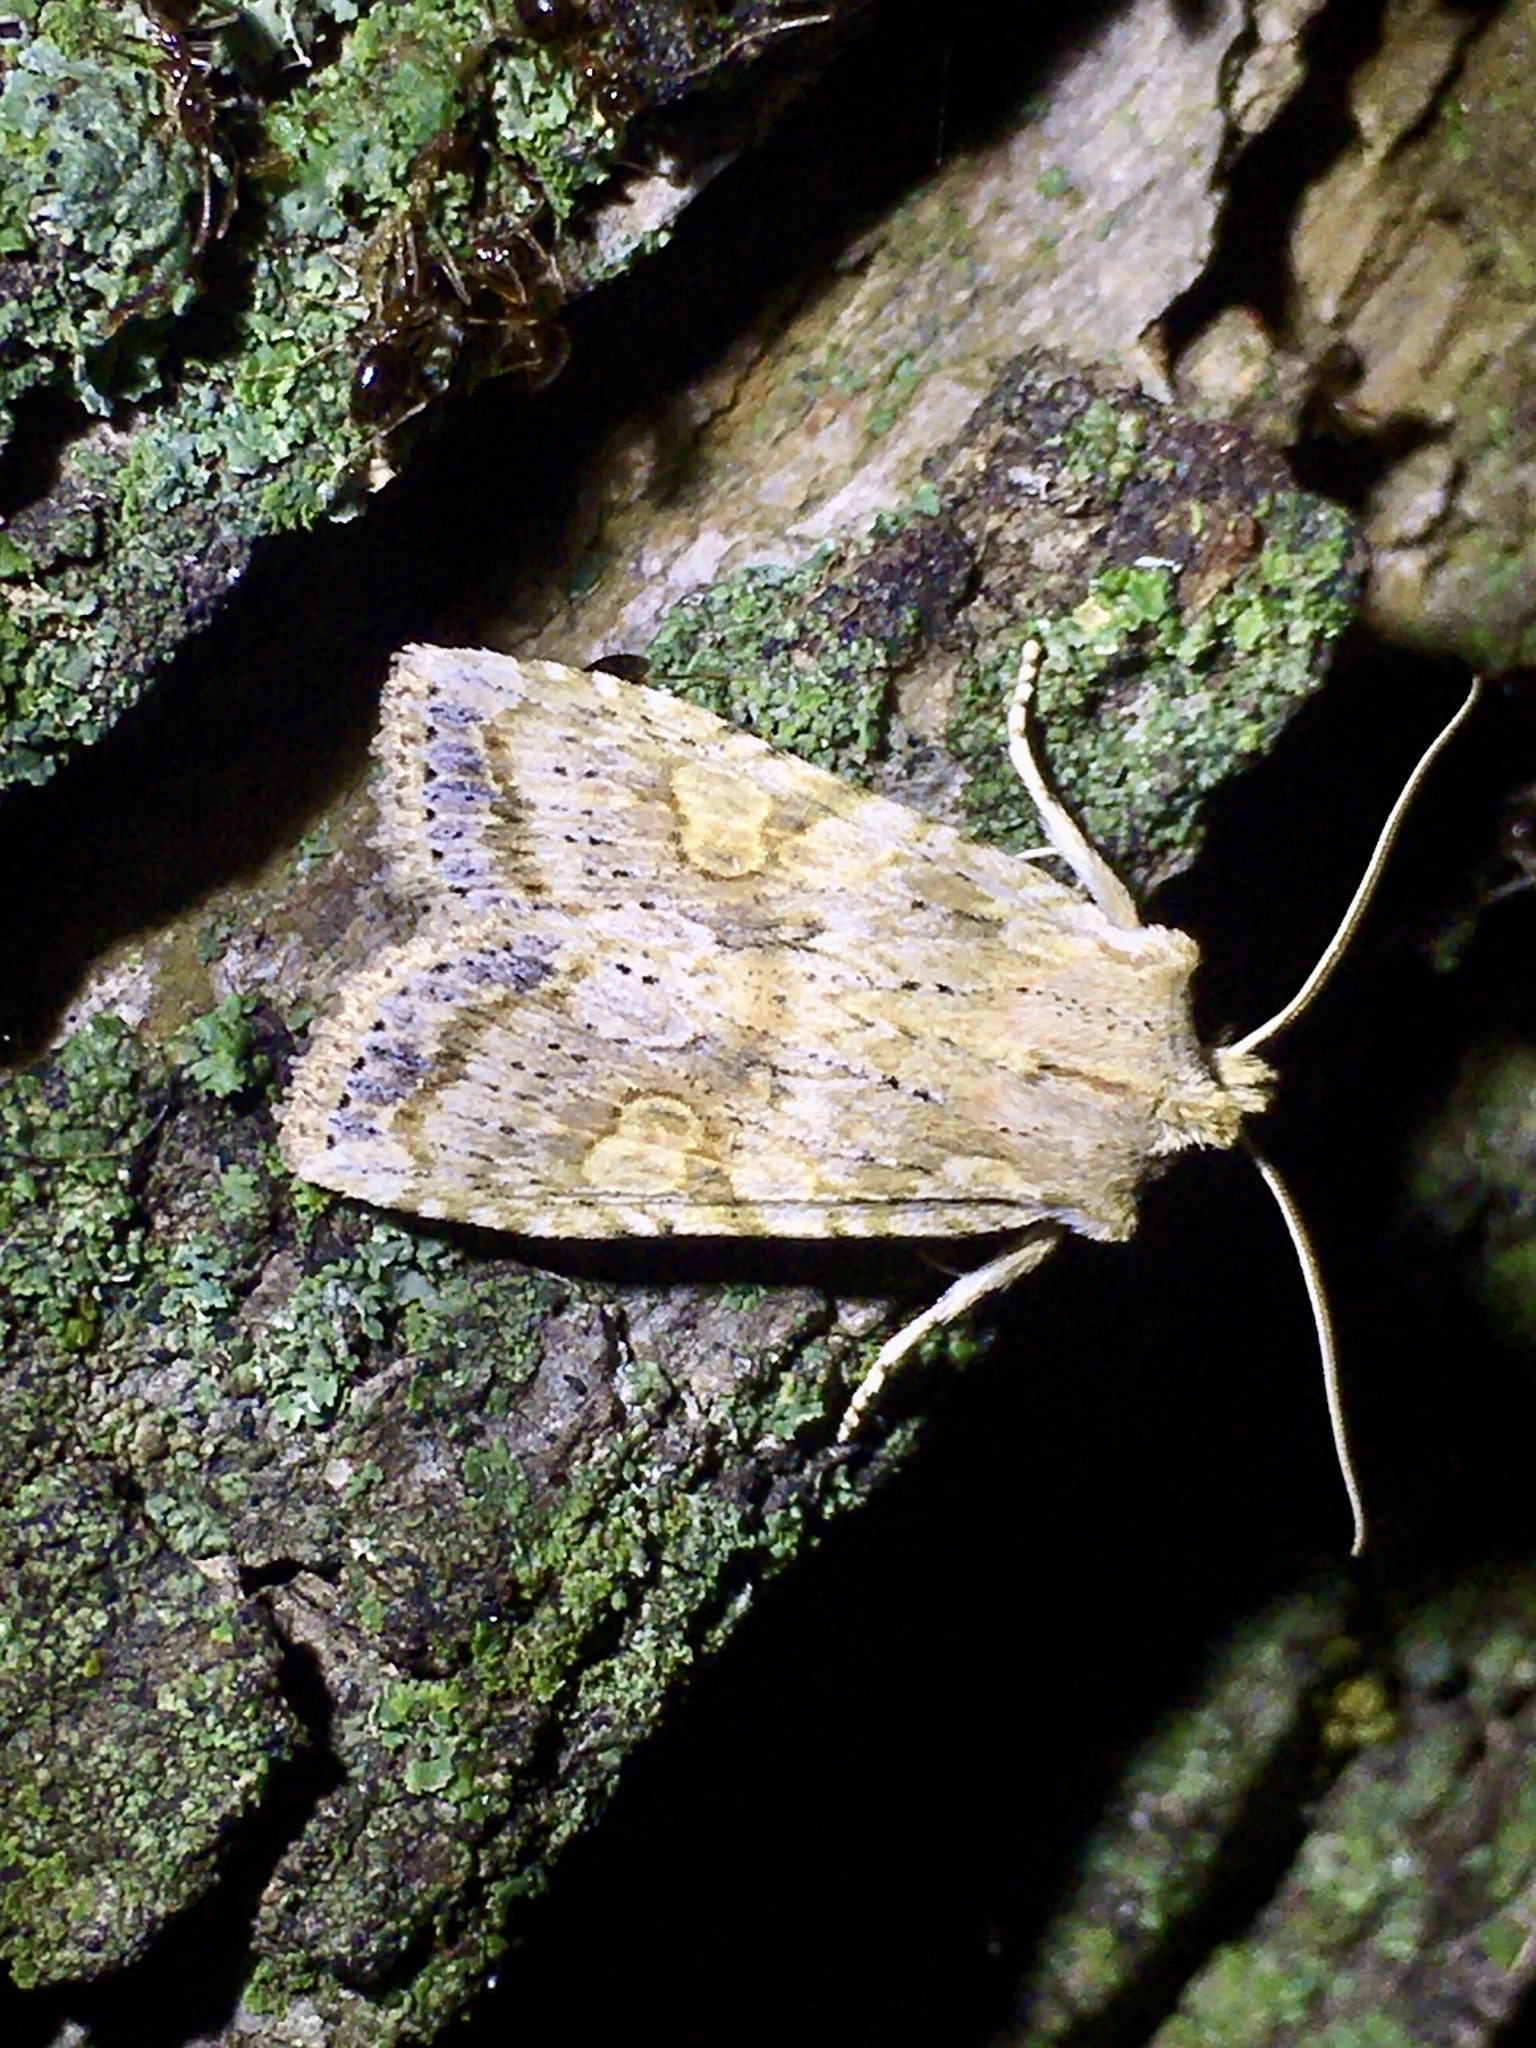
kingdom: Animalia
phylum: Arthropoda
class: Insecta
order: Lepidoptera
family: Noctuidae
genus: Lithophane
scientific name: Lithophane bethunei
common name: Bethune's pinion moth
